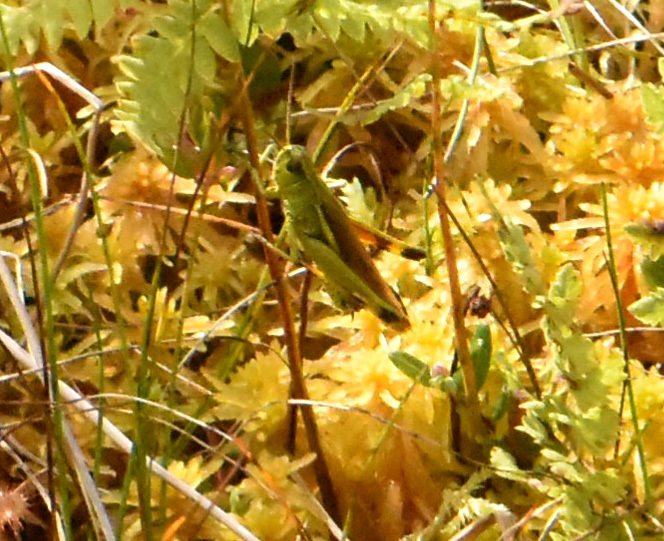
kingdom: Animalia
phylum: Arthropoda
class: Insecta
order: Orthoptera
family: Acrididae
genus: Stethophyma
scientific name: Stethophyma grossum
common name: Large marsh grasshopper
